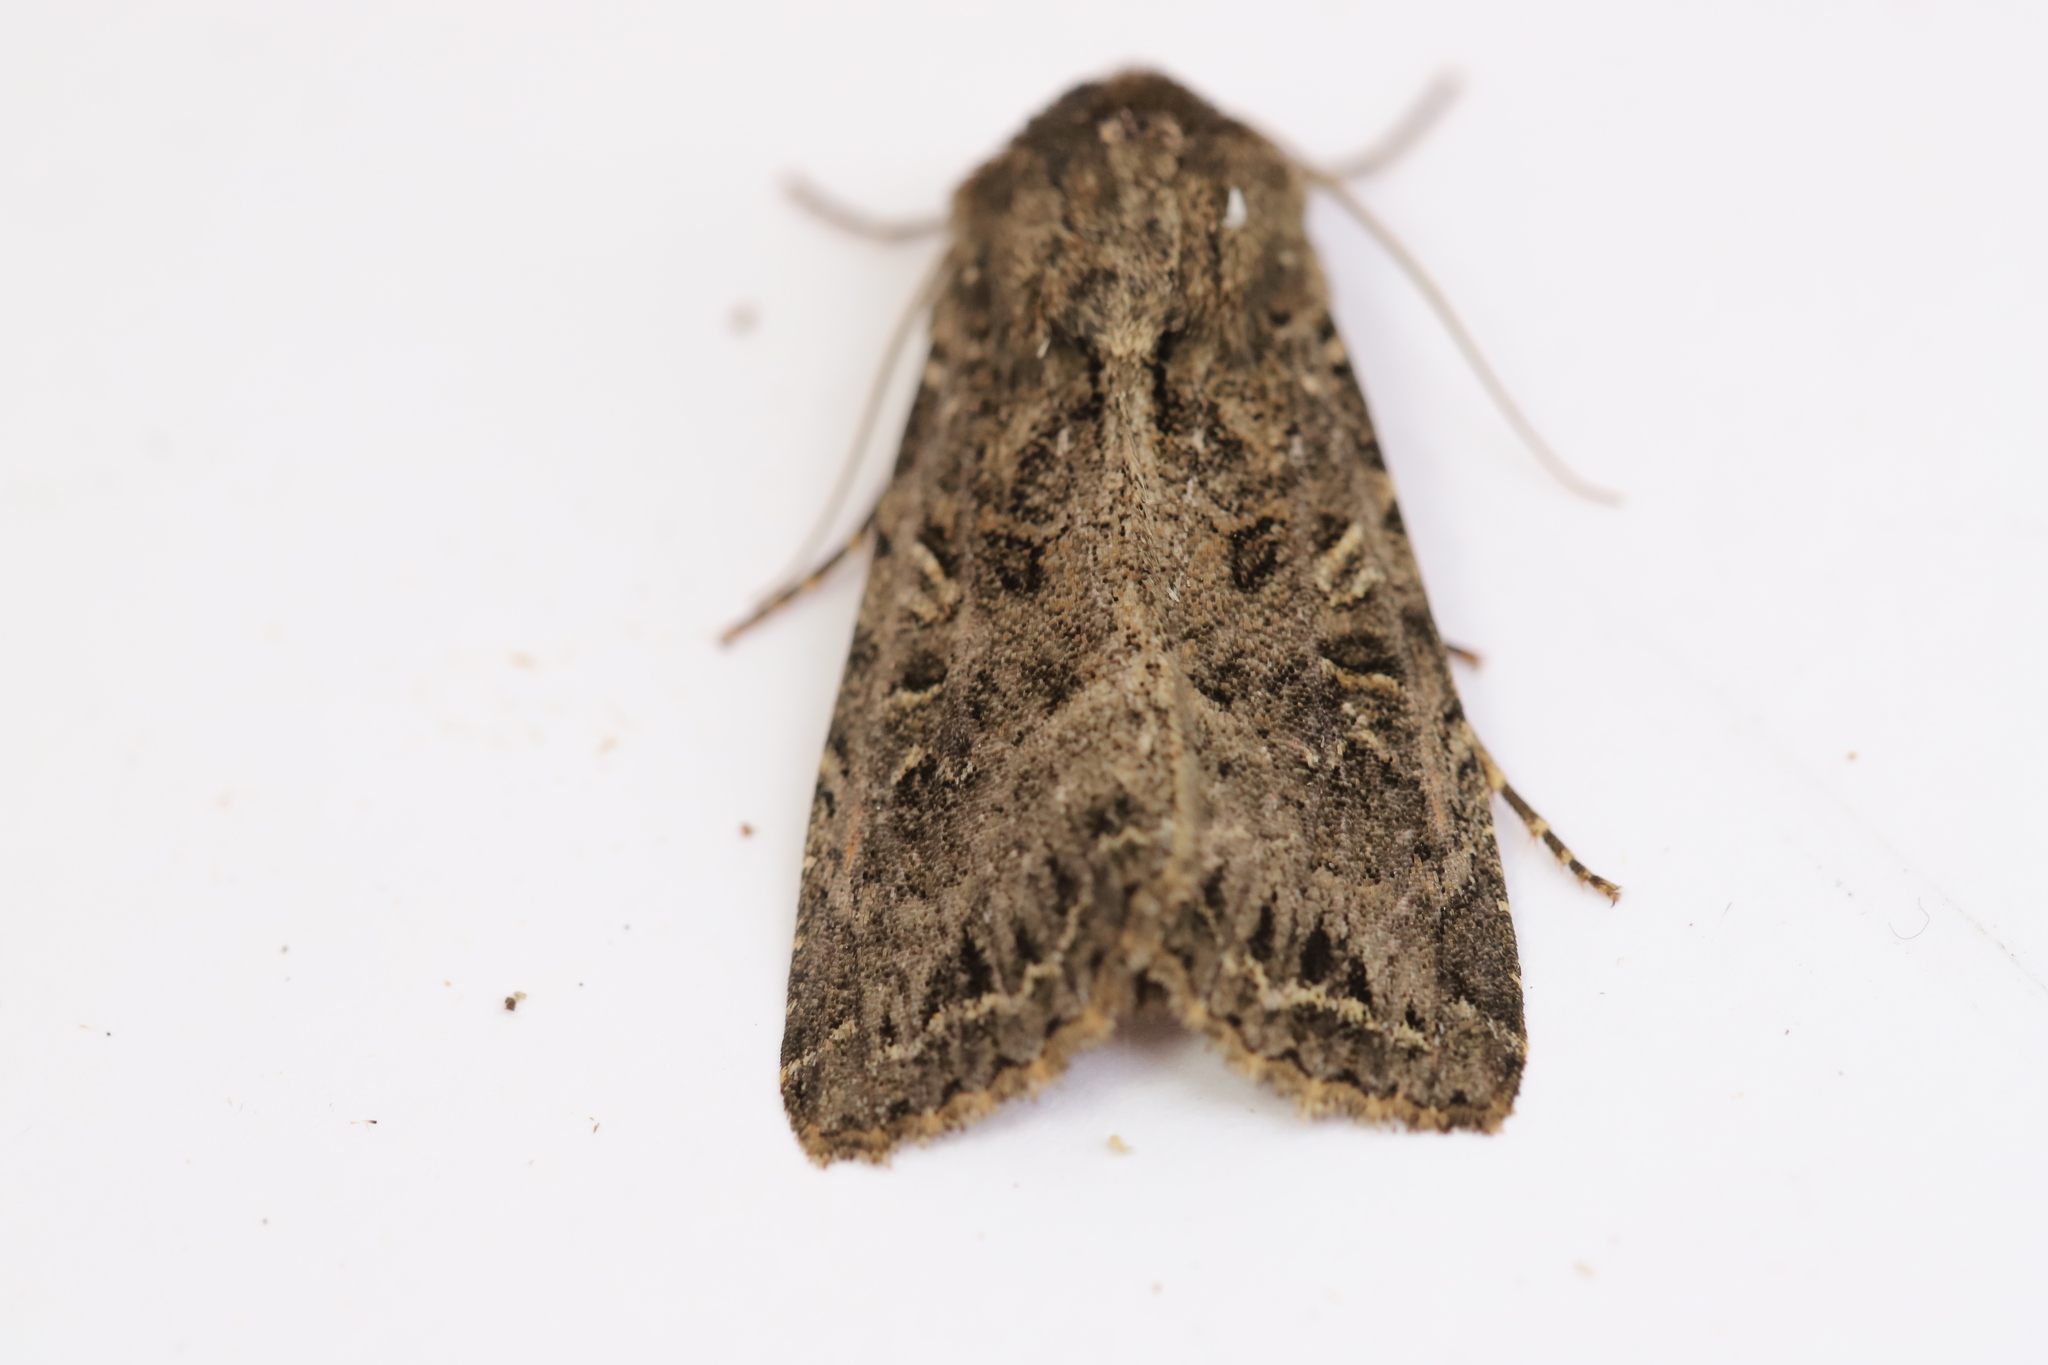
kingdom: Animalia
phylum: Arthropoda
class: Insecta
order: Lepidoptera
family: Noctuidae
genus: Apamea
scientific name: Apamea devastator
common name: Glassy cutworm
